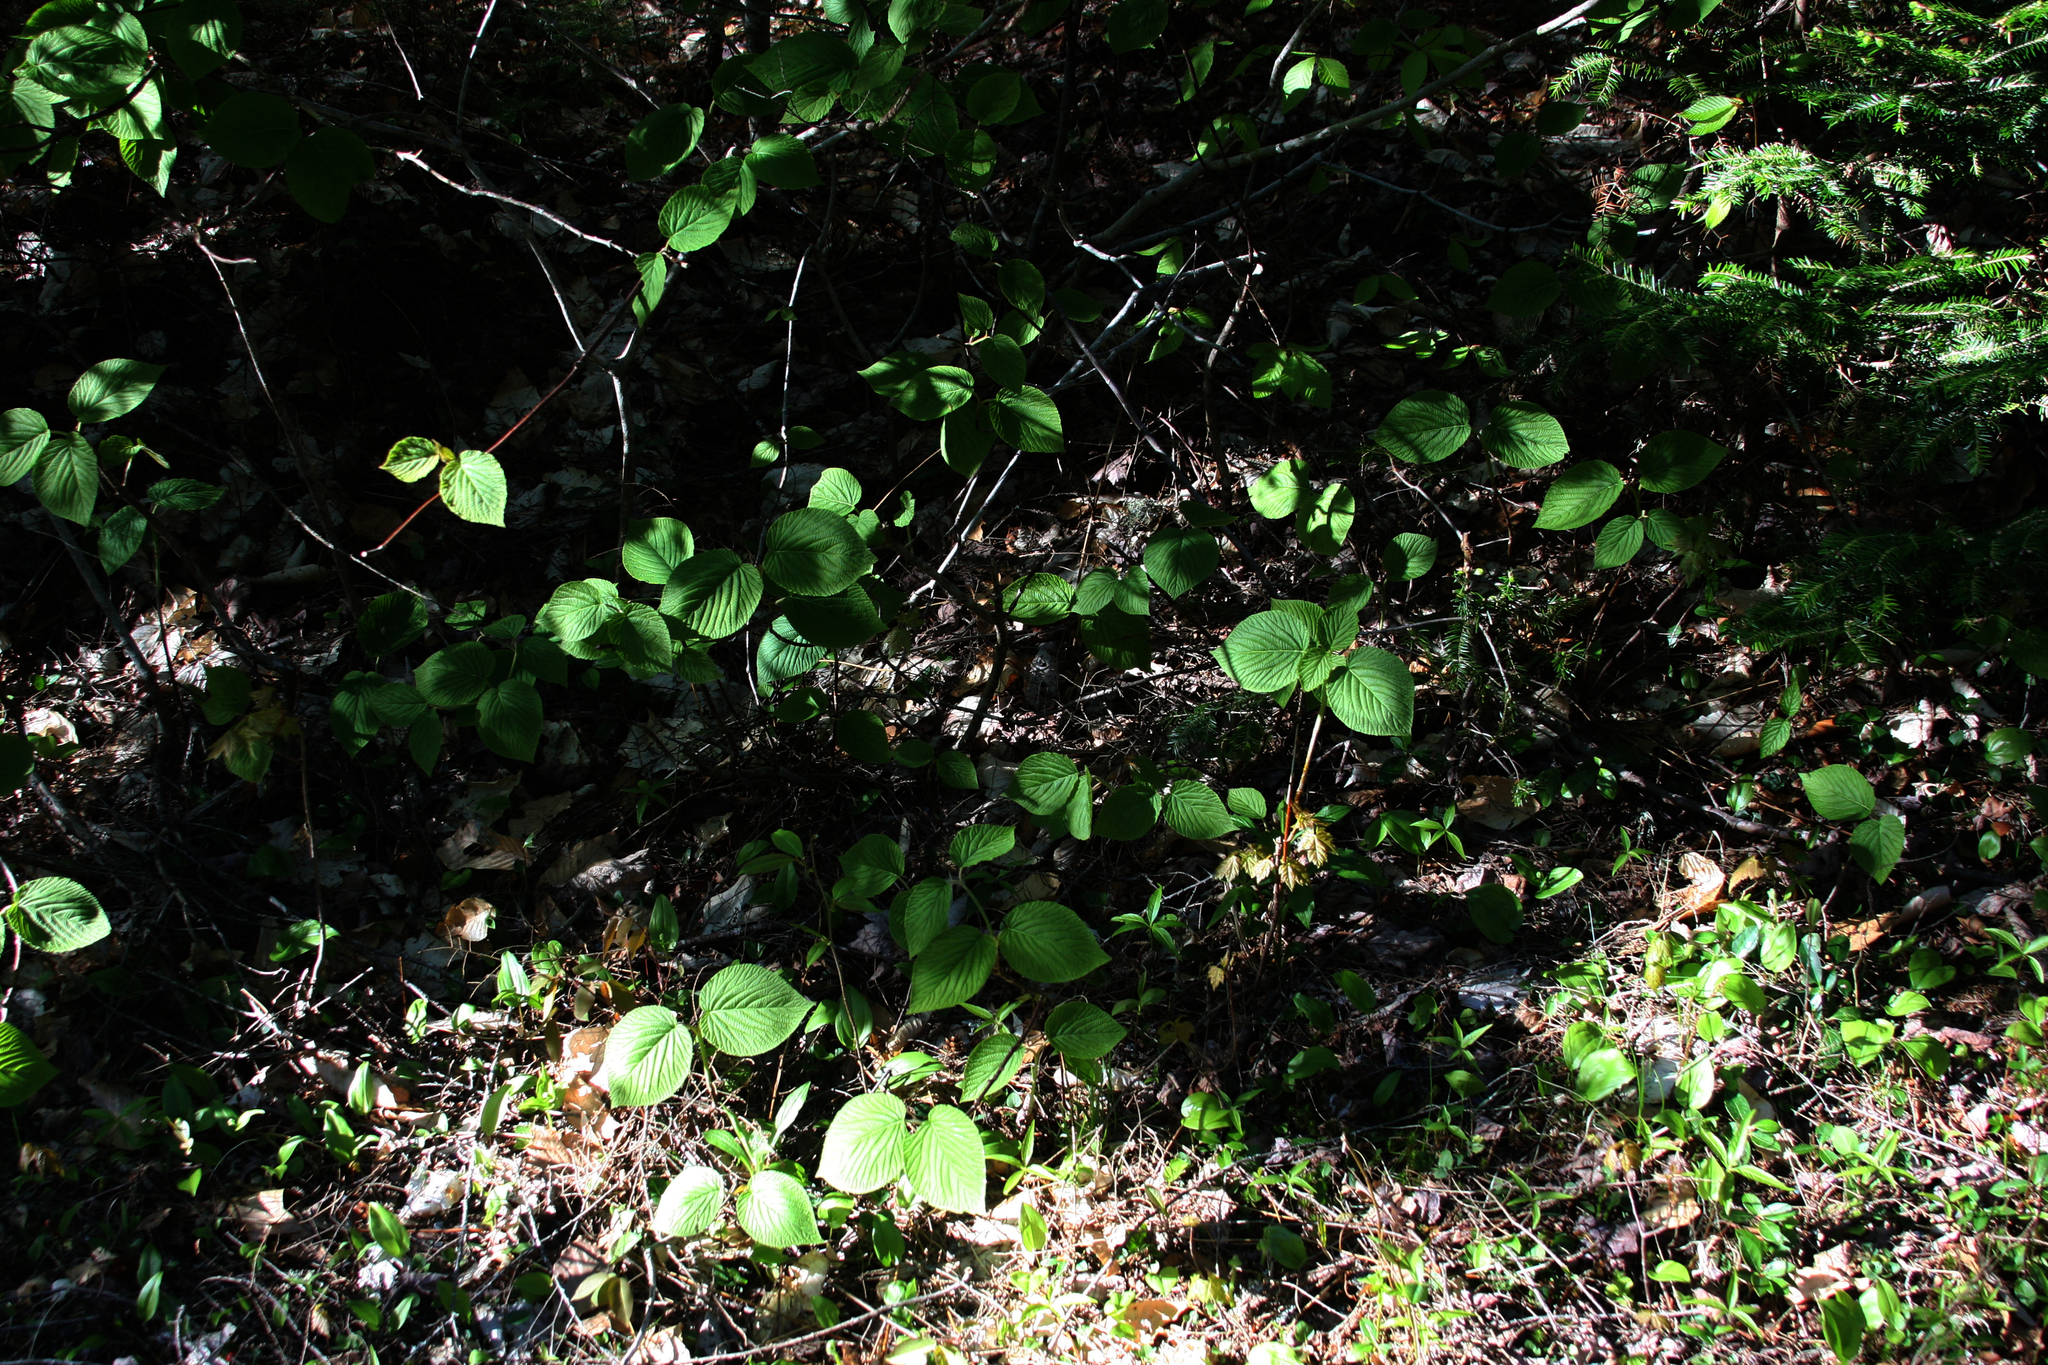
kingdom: Plantae
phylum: Tracheophyta
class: Magnoliopsida
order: Dipsacales
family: Viburnaceae
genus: Viburnum
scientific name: Viburnum lantanoides
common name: Hobblebush
